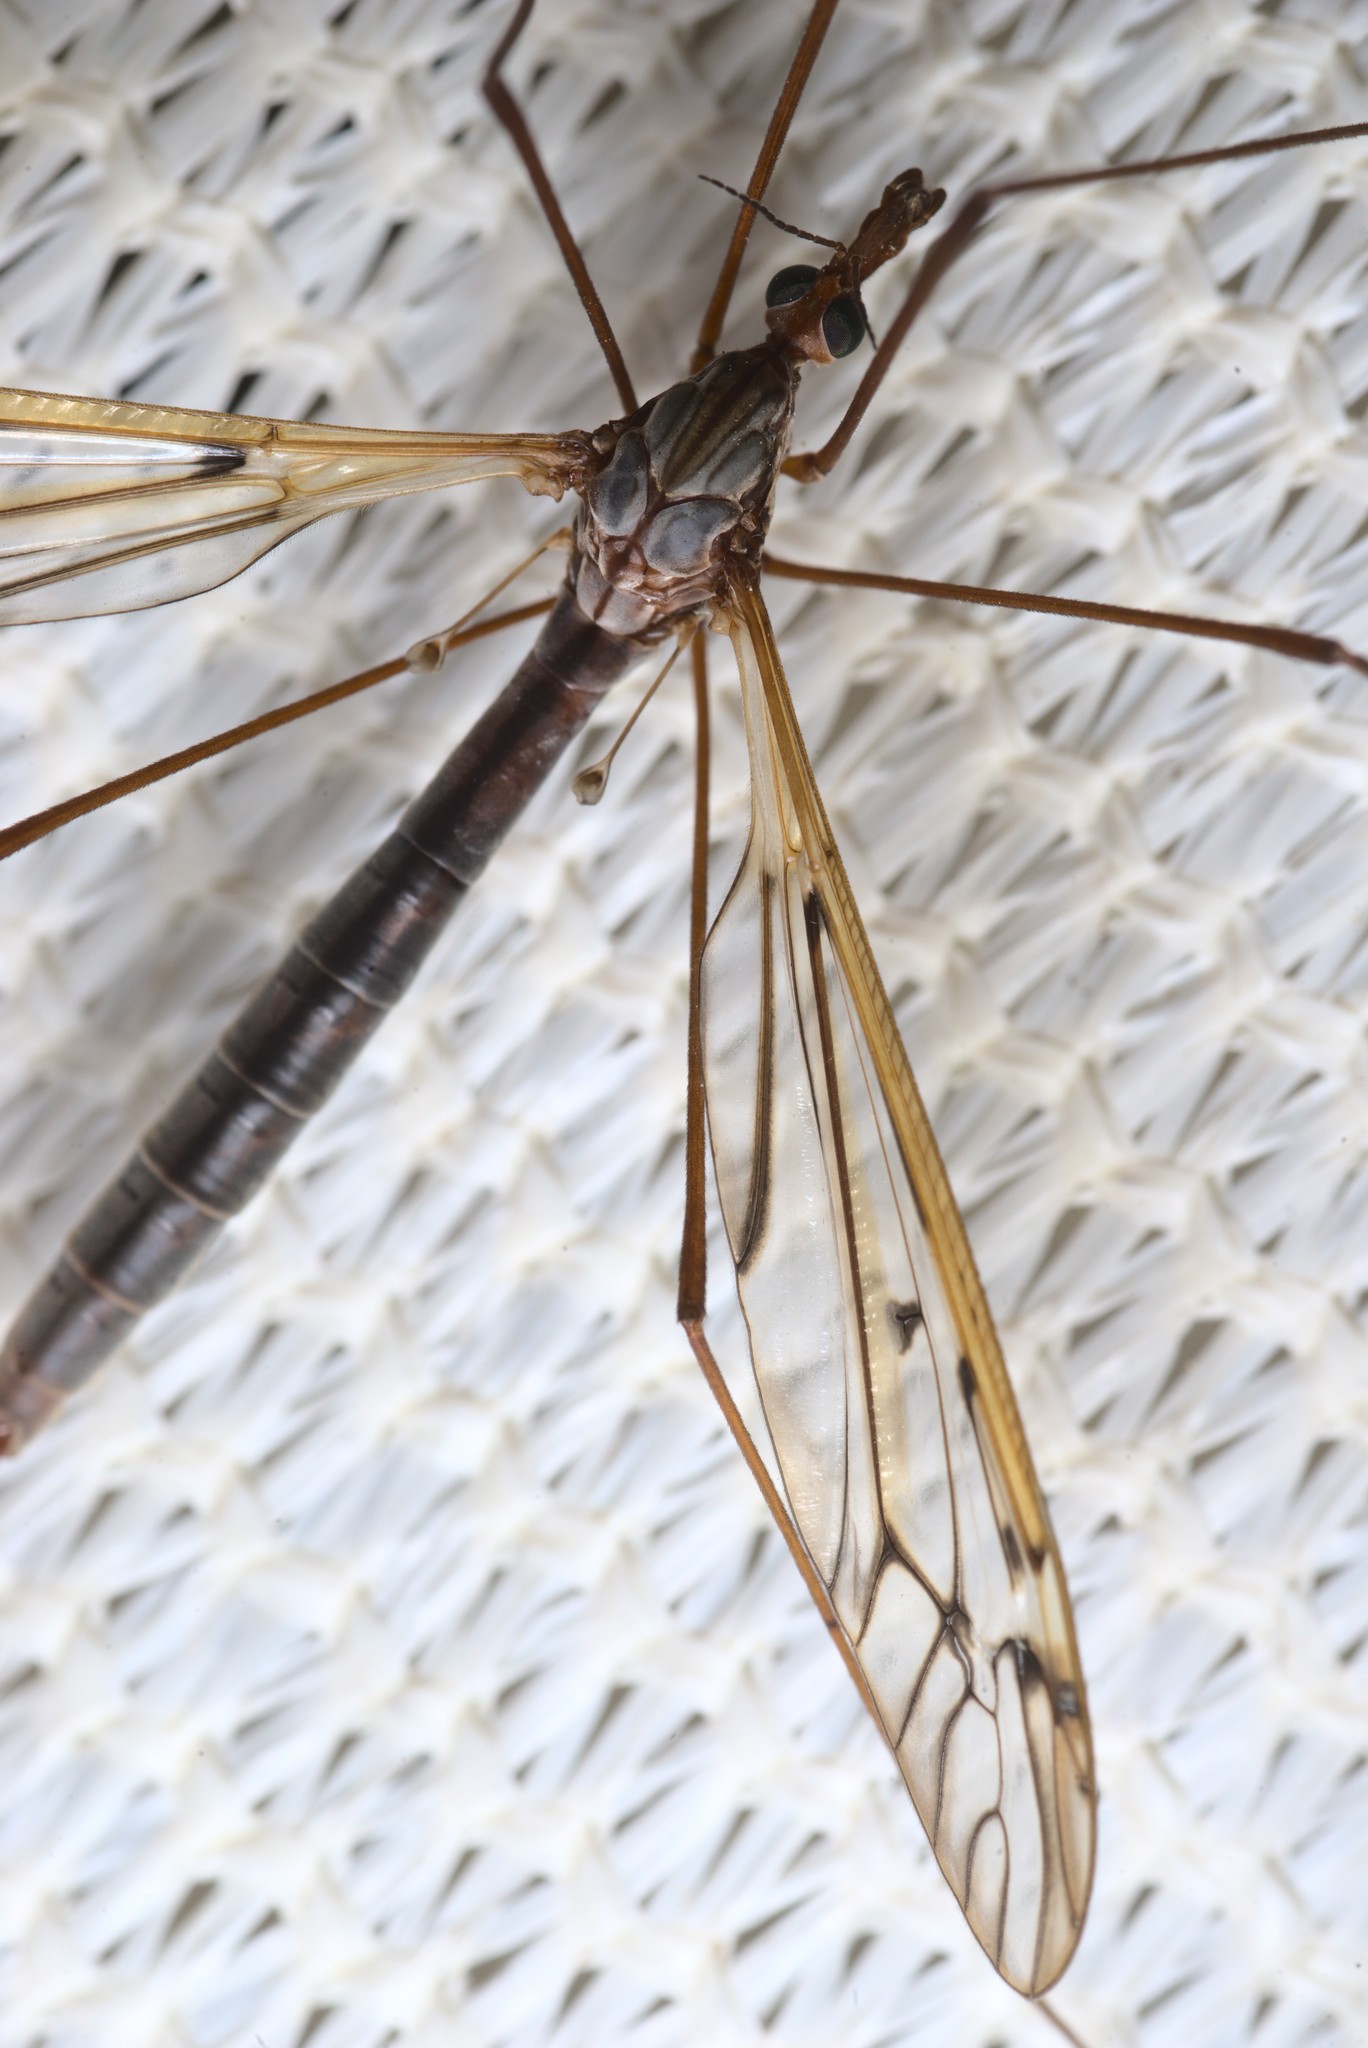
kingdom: Animalia
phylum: Arthropoda
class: Insecta
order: Diptera
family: Tipulidae
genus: Zelandotipula
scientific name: Zelandotipula novarae
